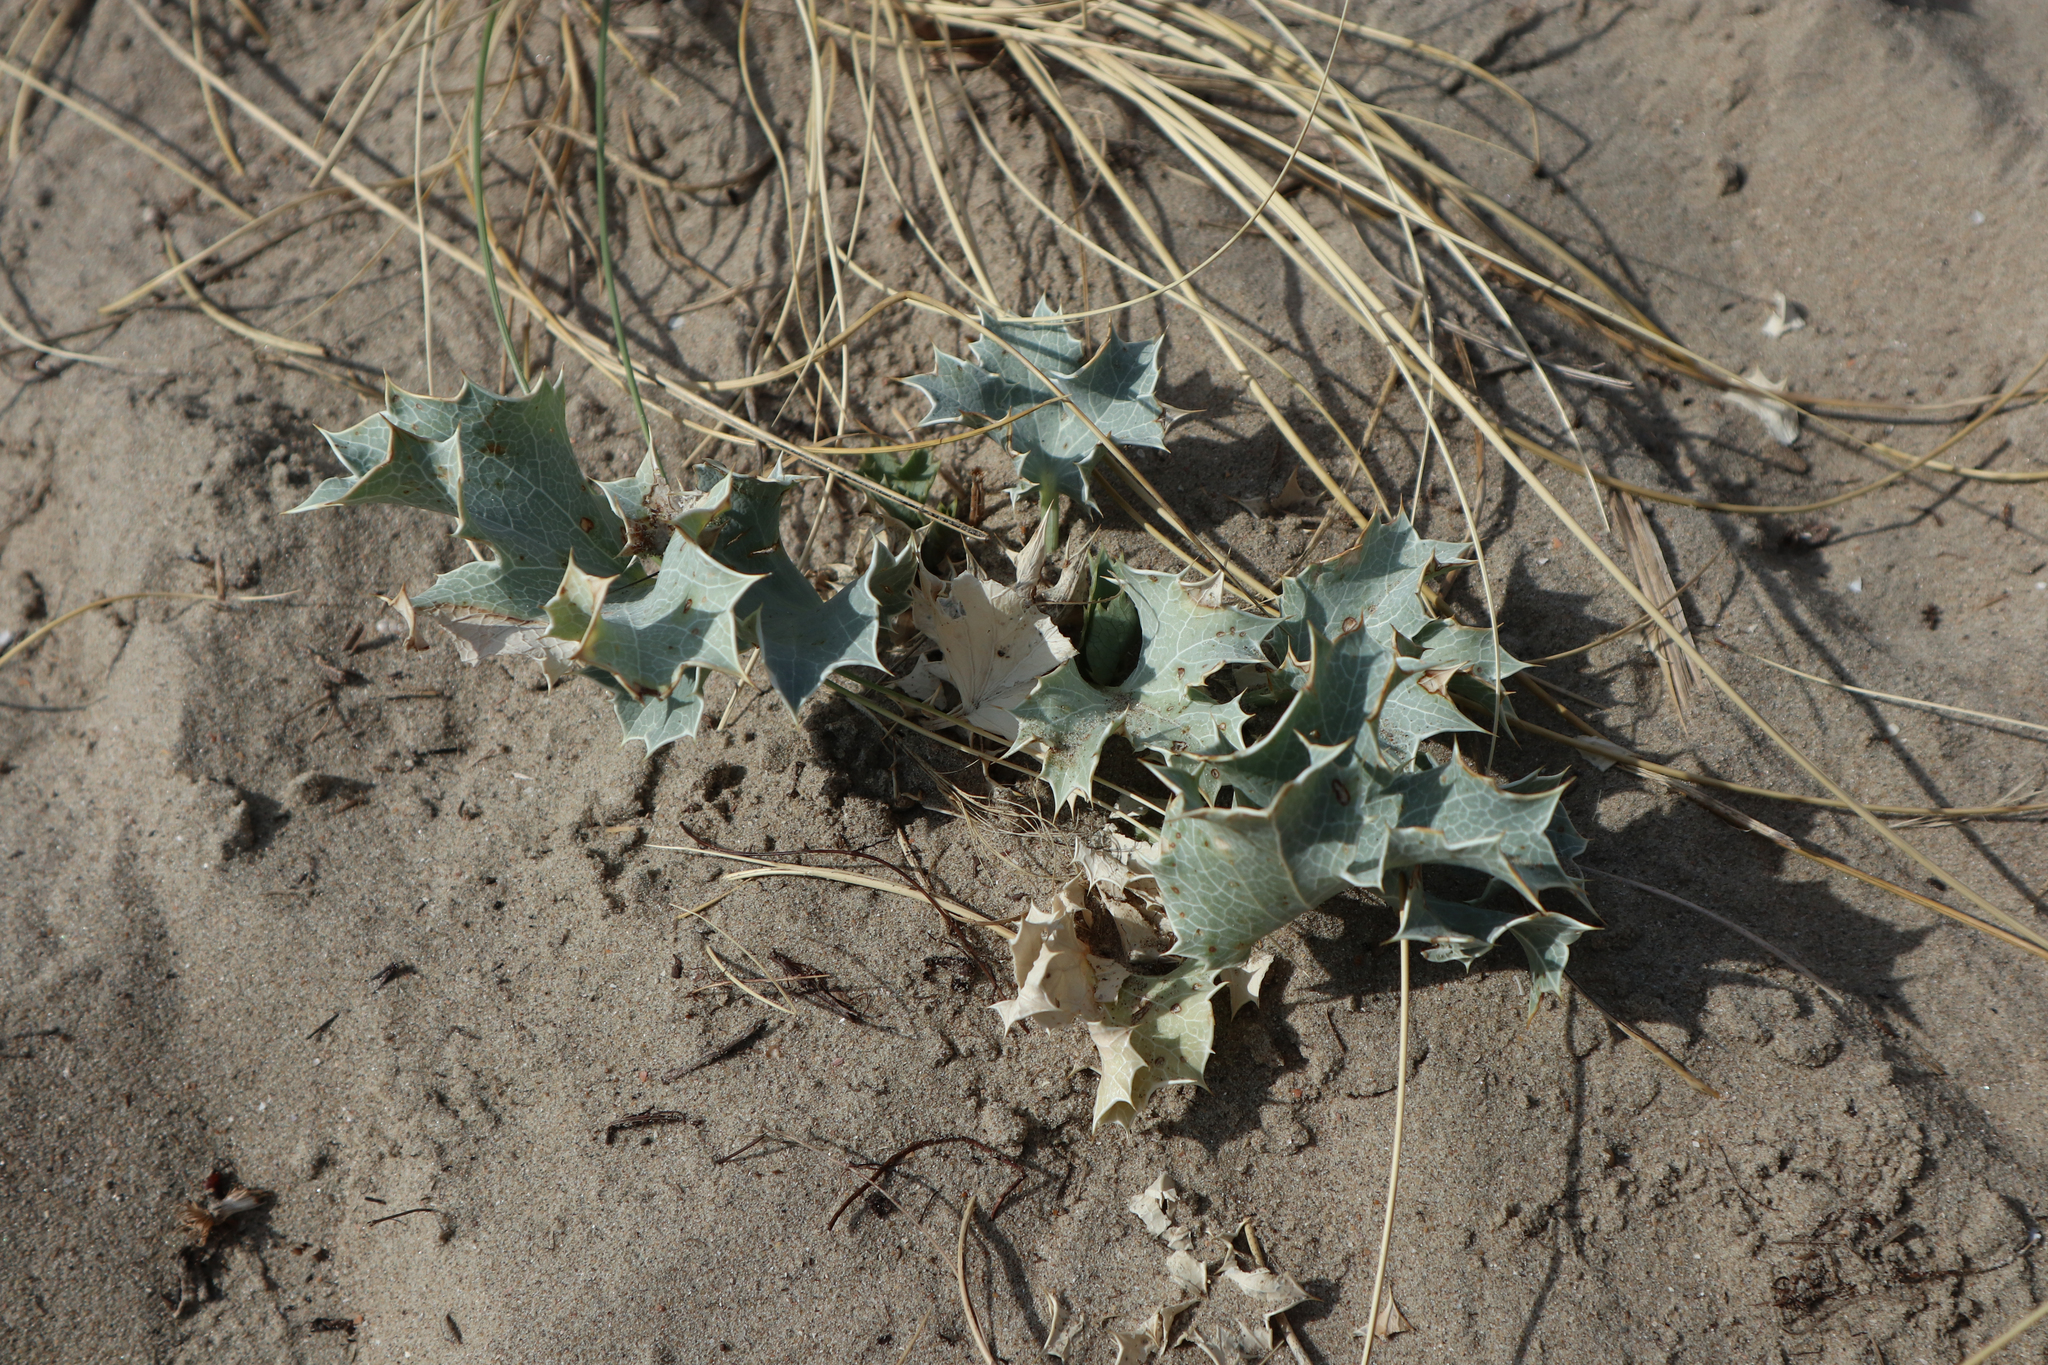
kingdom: Plantae
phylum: Tracheophyta
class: Magnoliopsida
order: Apiales
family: Apiaceae
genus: Eryngium
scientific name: Eryngium maritimum
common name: Sea-holly
